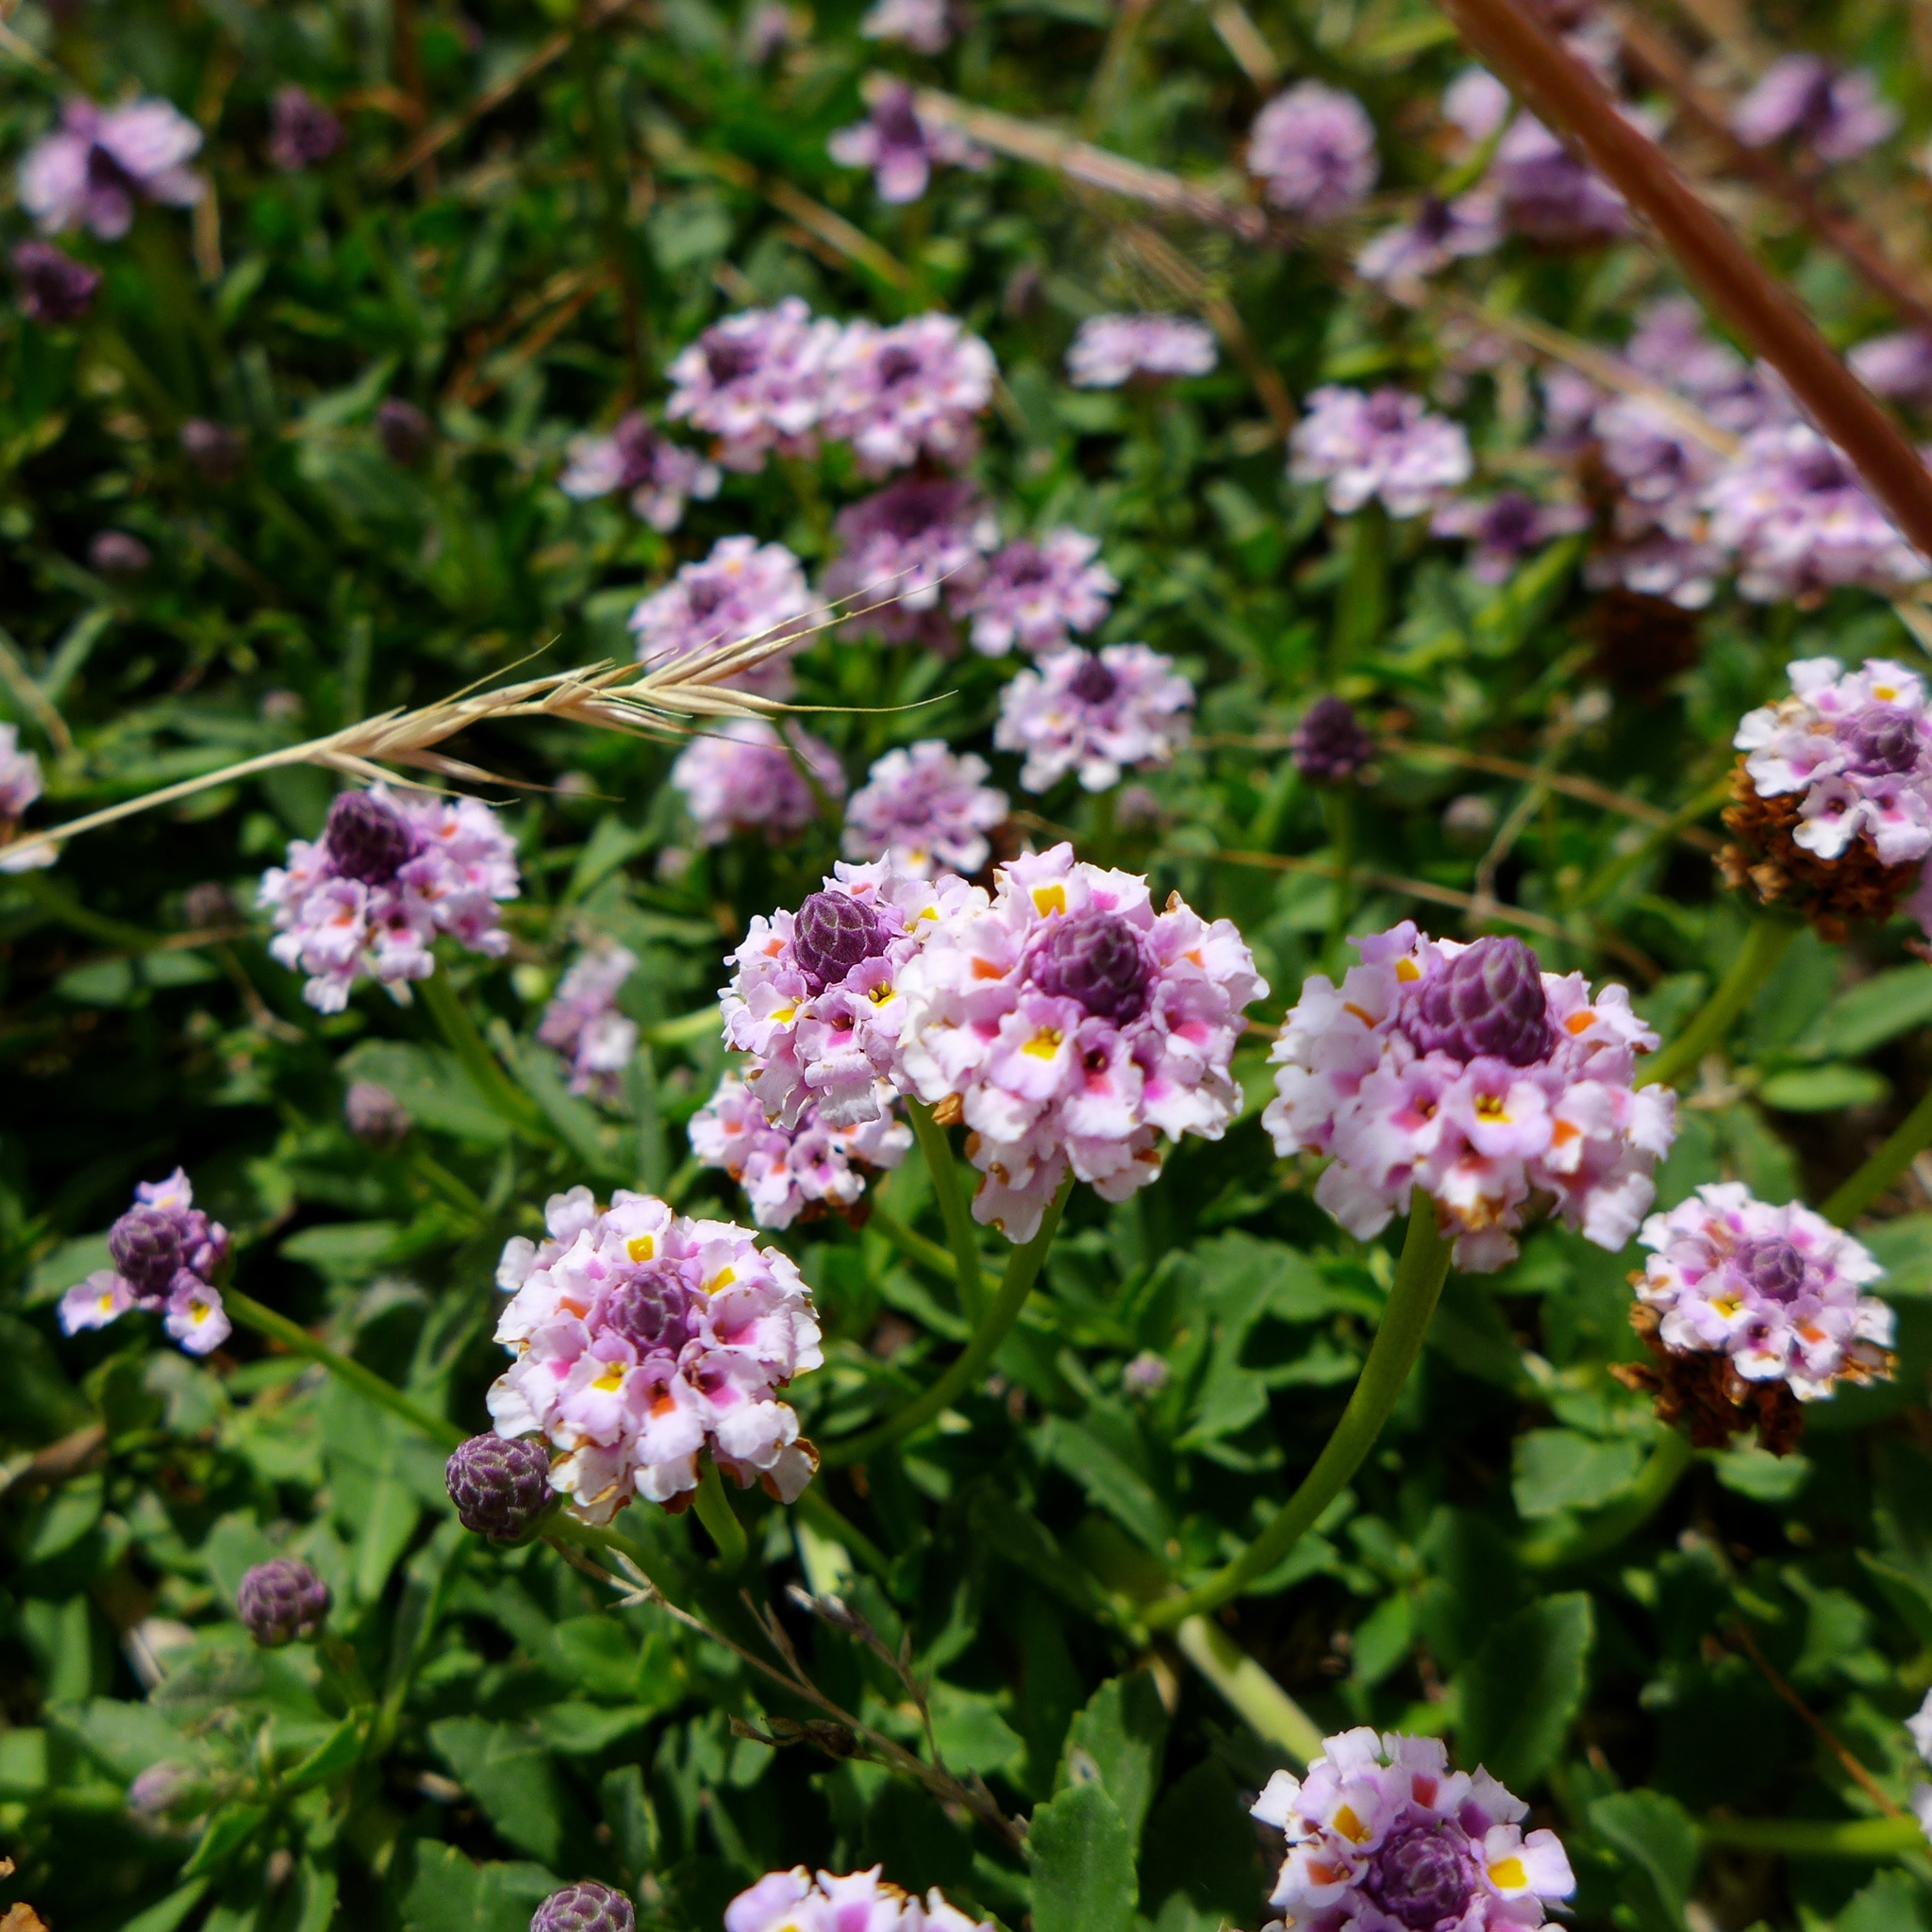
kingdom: Plantae
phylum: Tracheophyta
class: Magnoliopsida
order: Lamiales
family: Verbenaceae
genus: Phyla
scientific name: Phyla nodiflora
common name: Frogfruit
